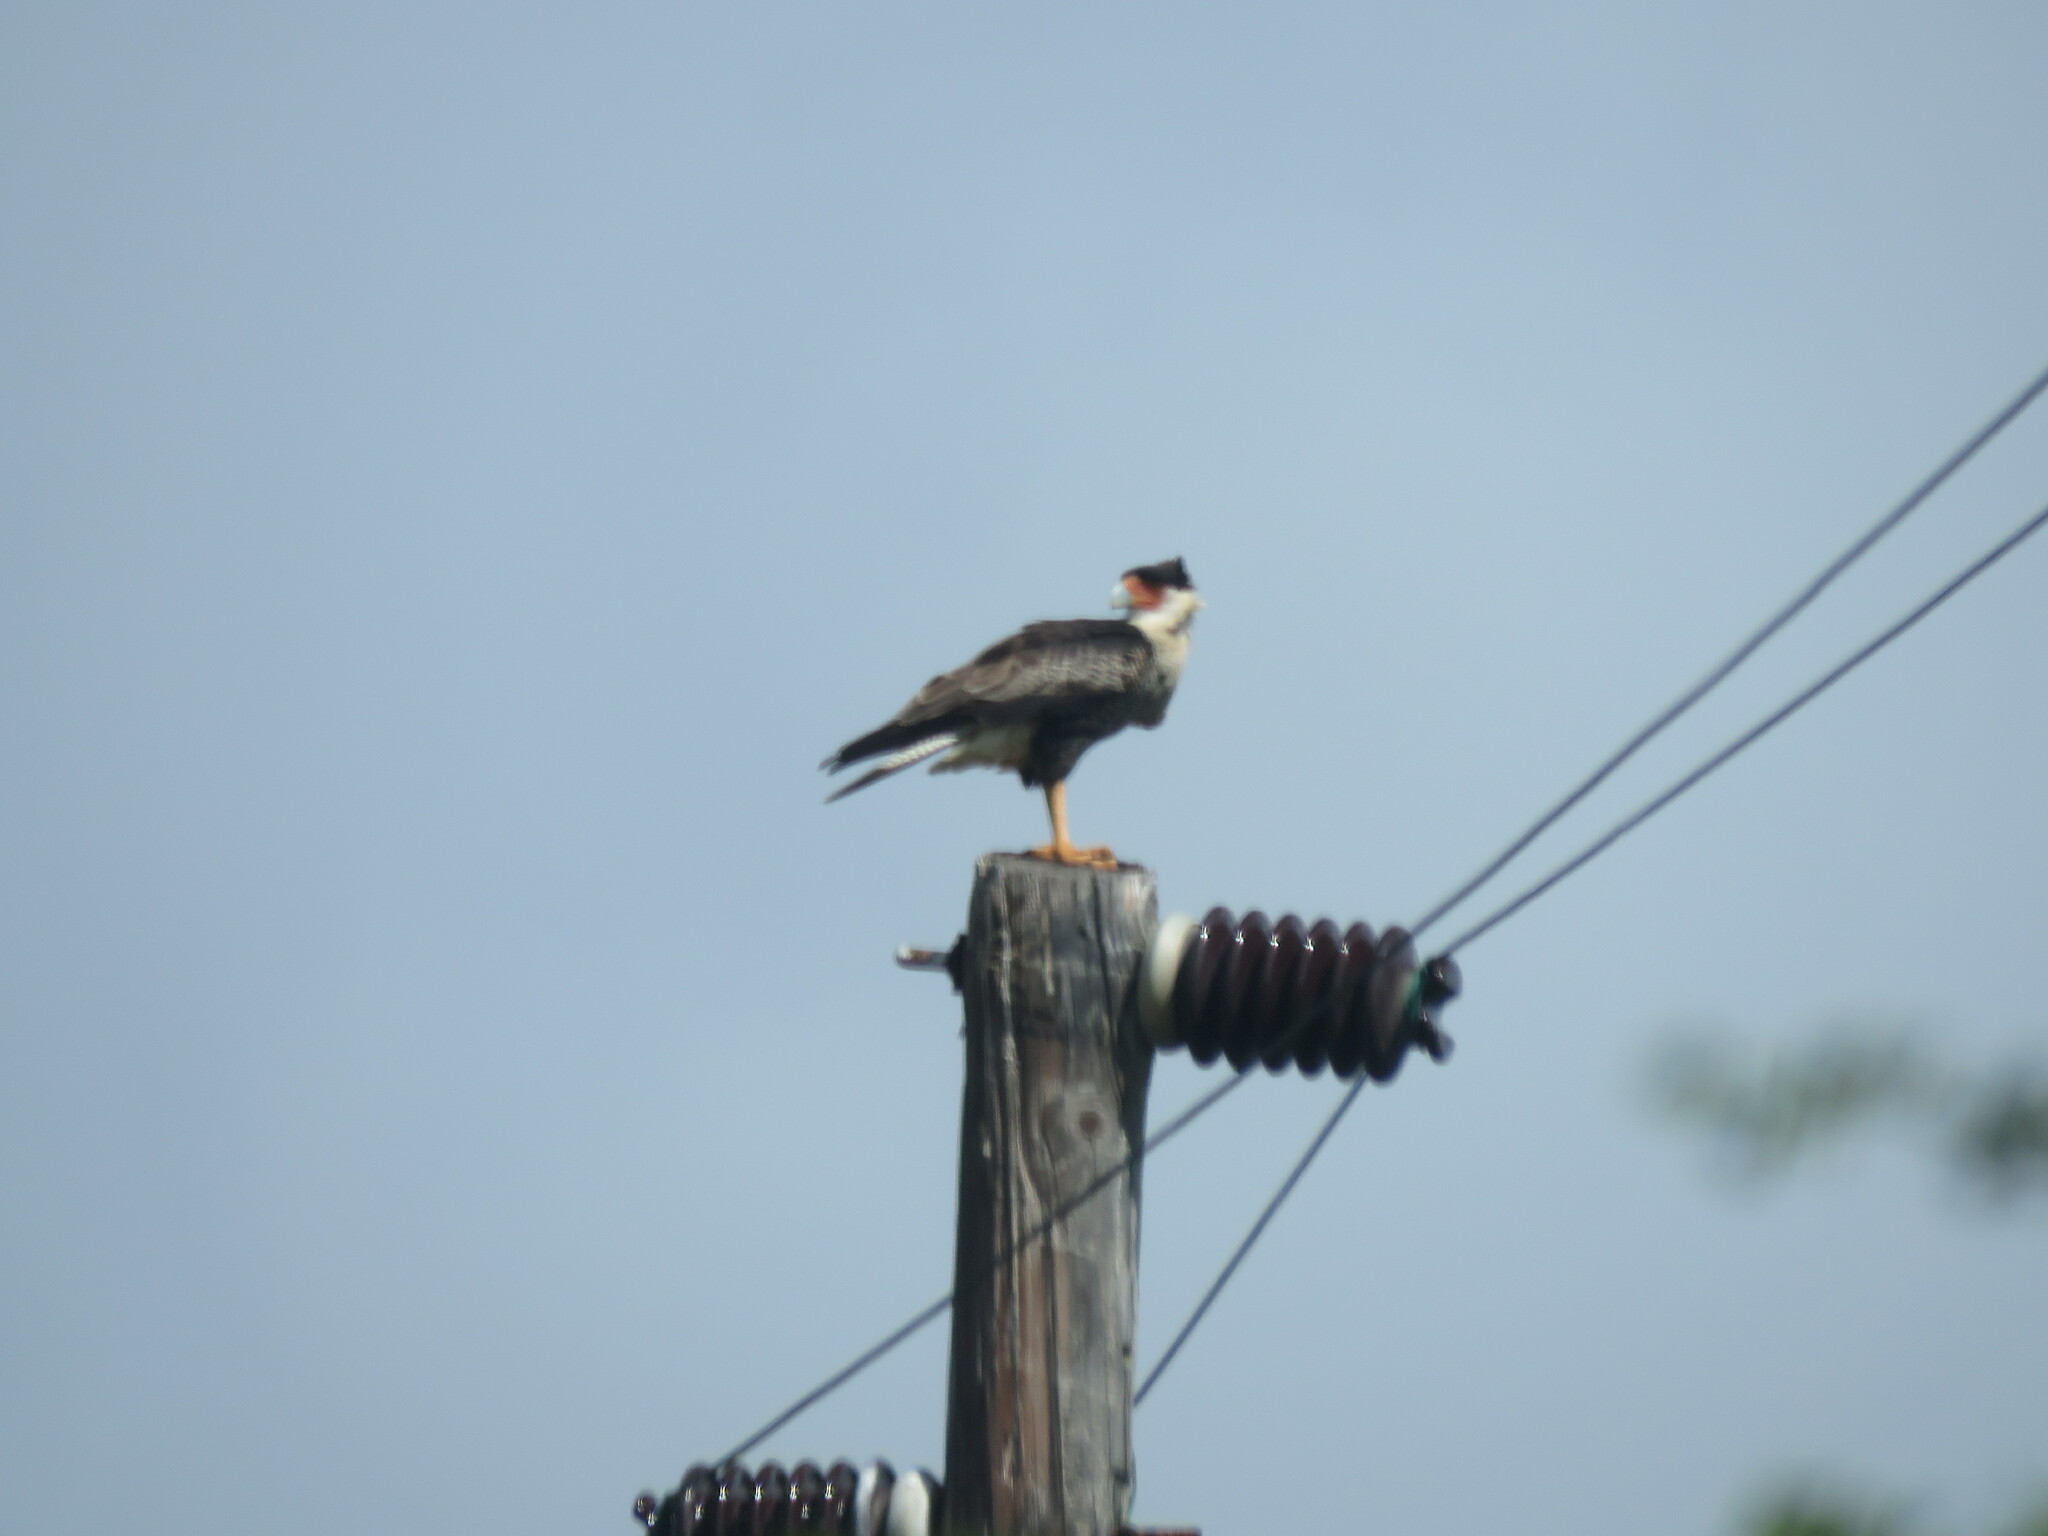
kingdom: Animalia
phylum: Chordata
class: Aves
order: Falconiformes
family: Falconidae
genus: Caracara
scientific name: Caracara plancus
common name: Southern caracara
